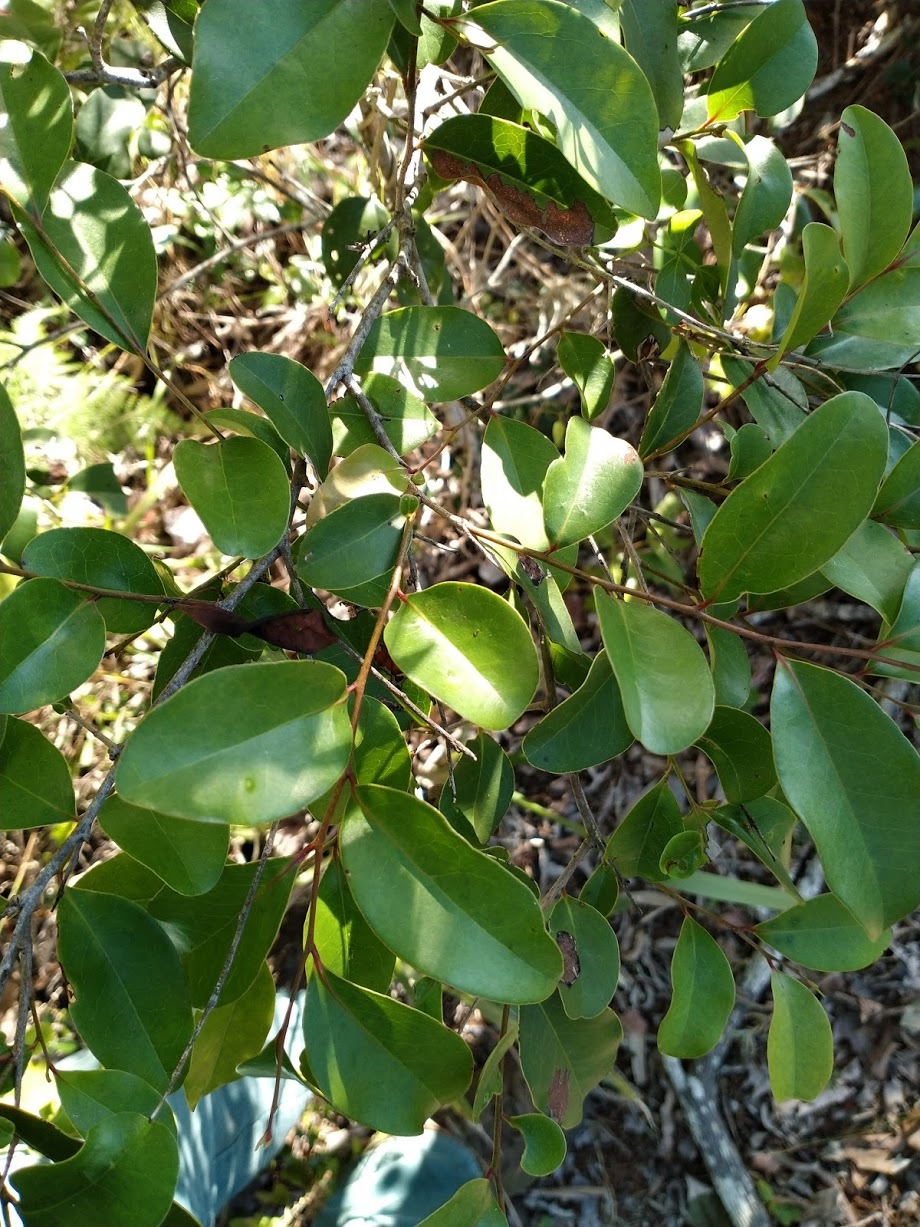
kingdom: Plantae
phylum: Tracheophyta
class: Magnoliopsida
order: Ericales
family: Ebenaceae
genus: Diospyros
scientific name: Diospyros geminata
